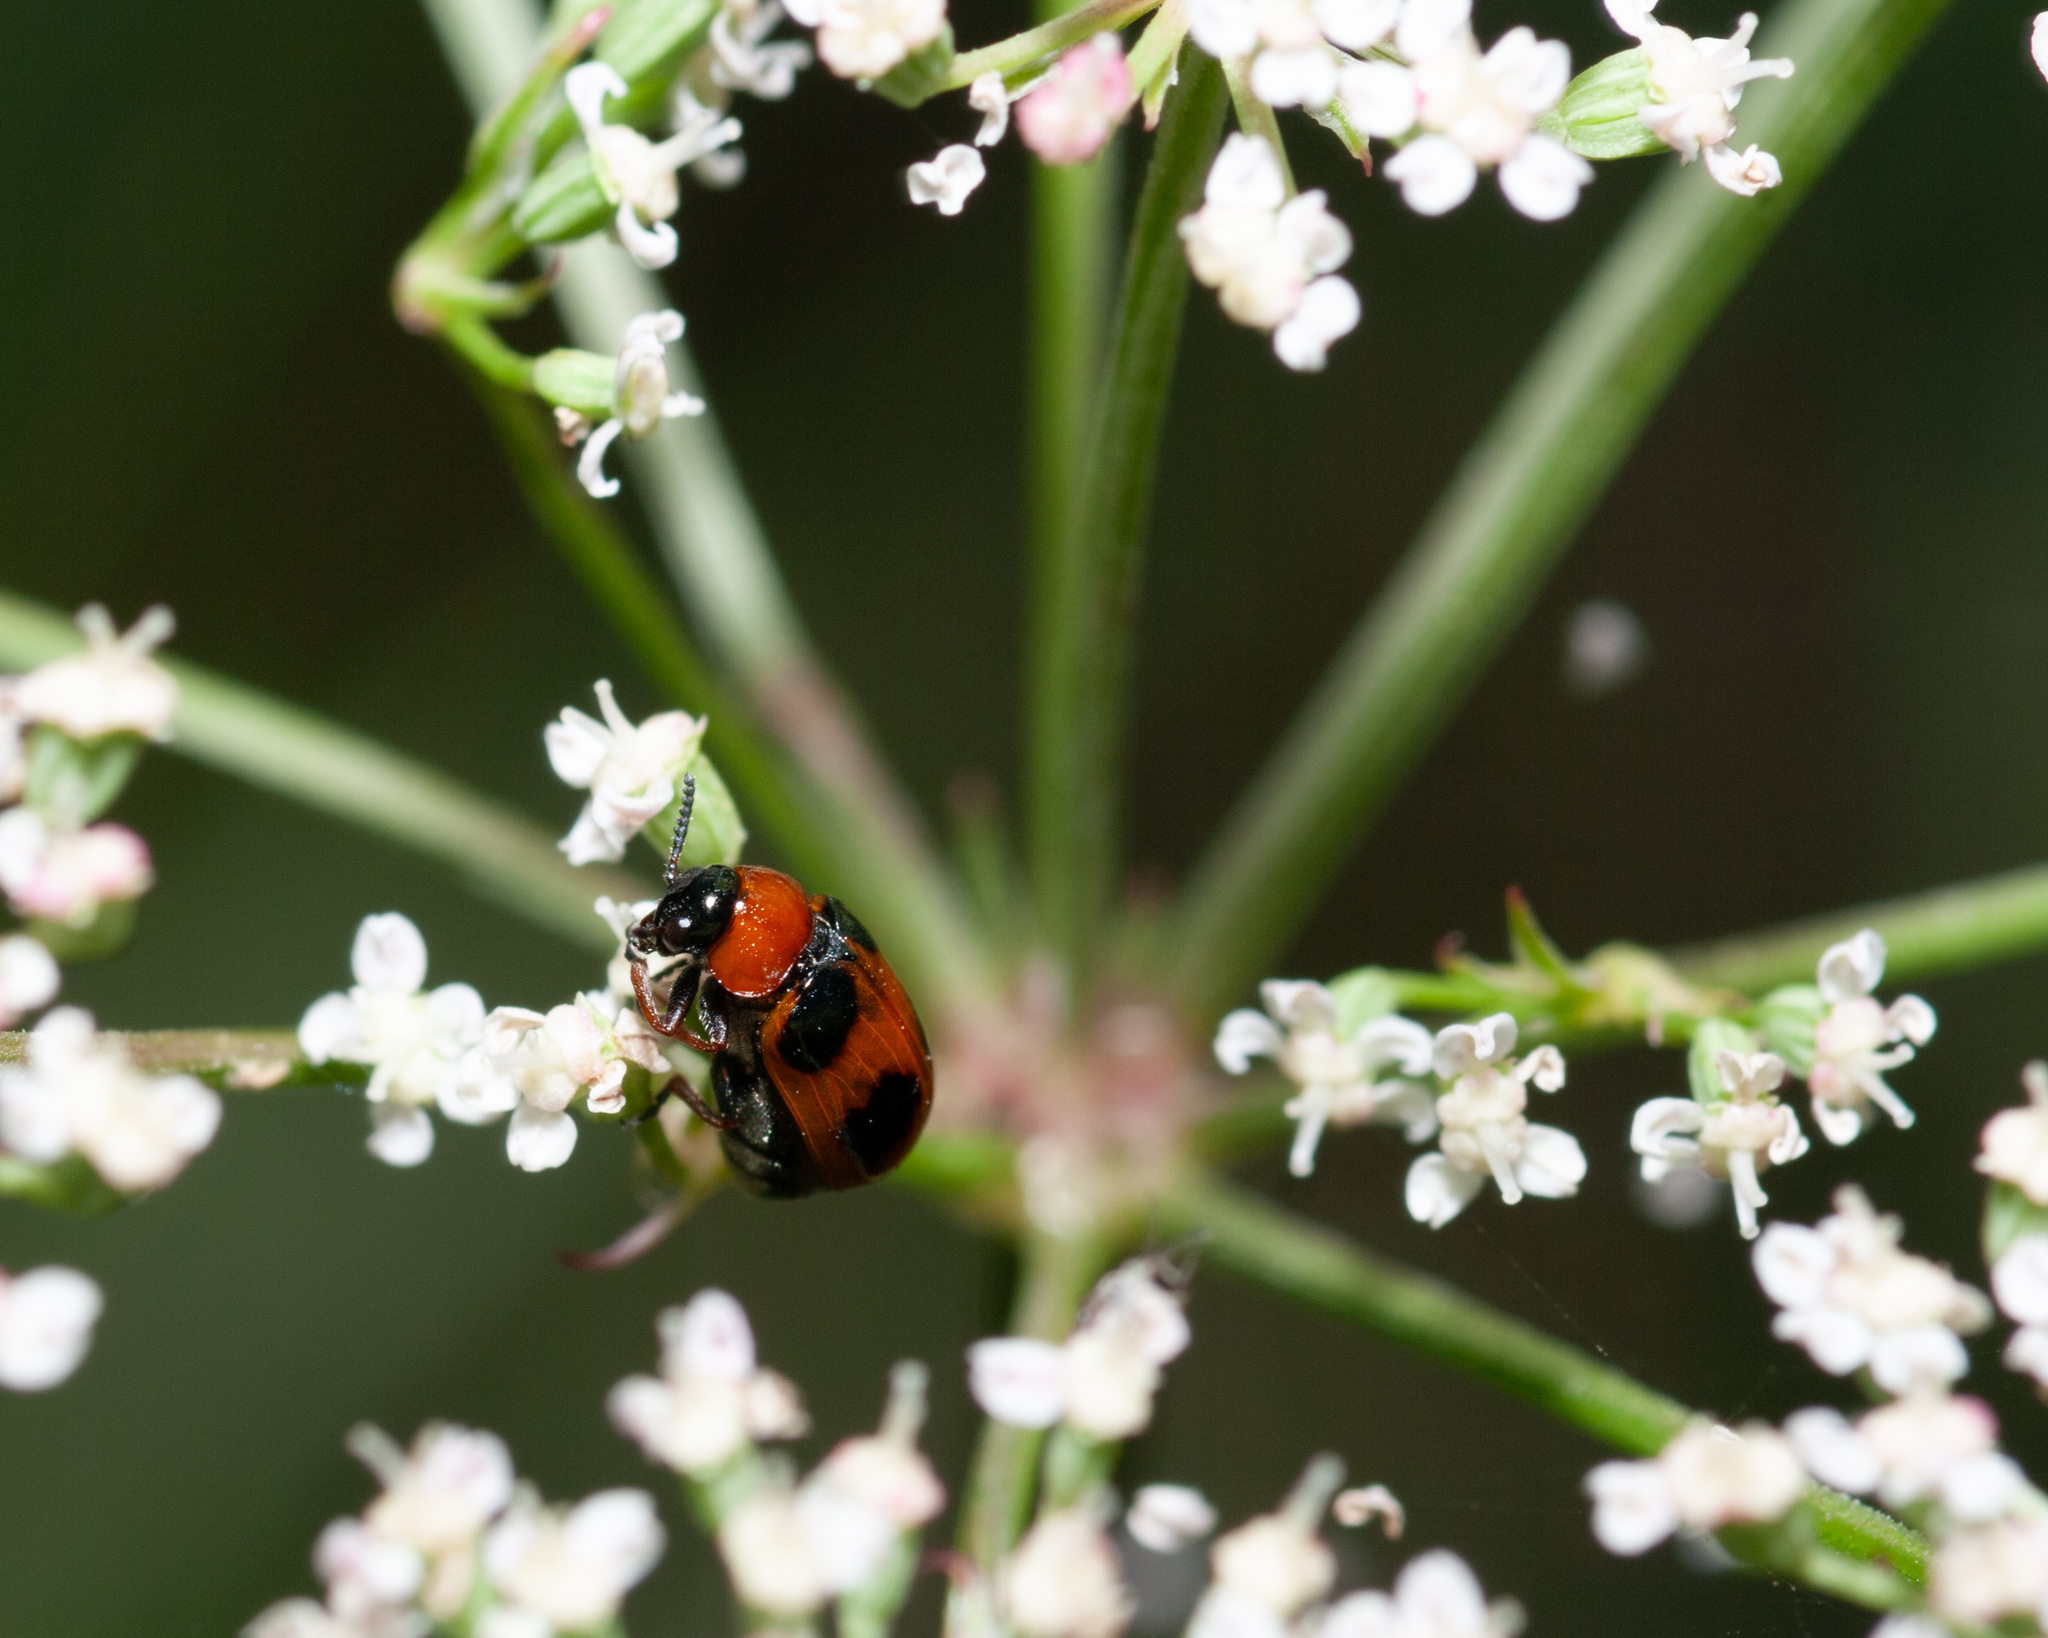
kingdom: Animalia
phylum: Arthropoda
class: Insecta
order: Coleoptera
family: Chrysomelidae
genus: Coptocephala
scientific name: Coptocephala unifasciata
